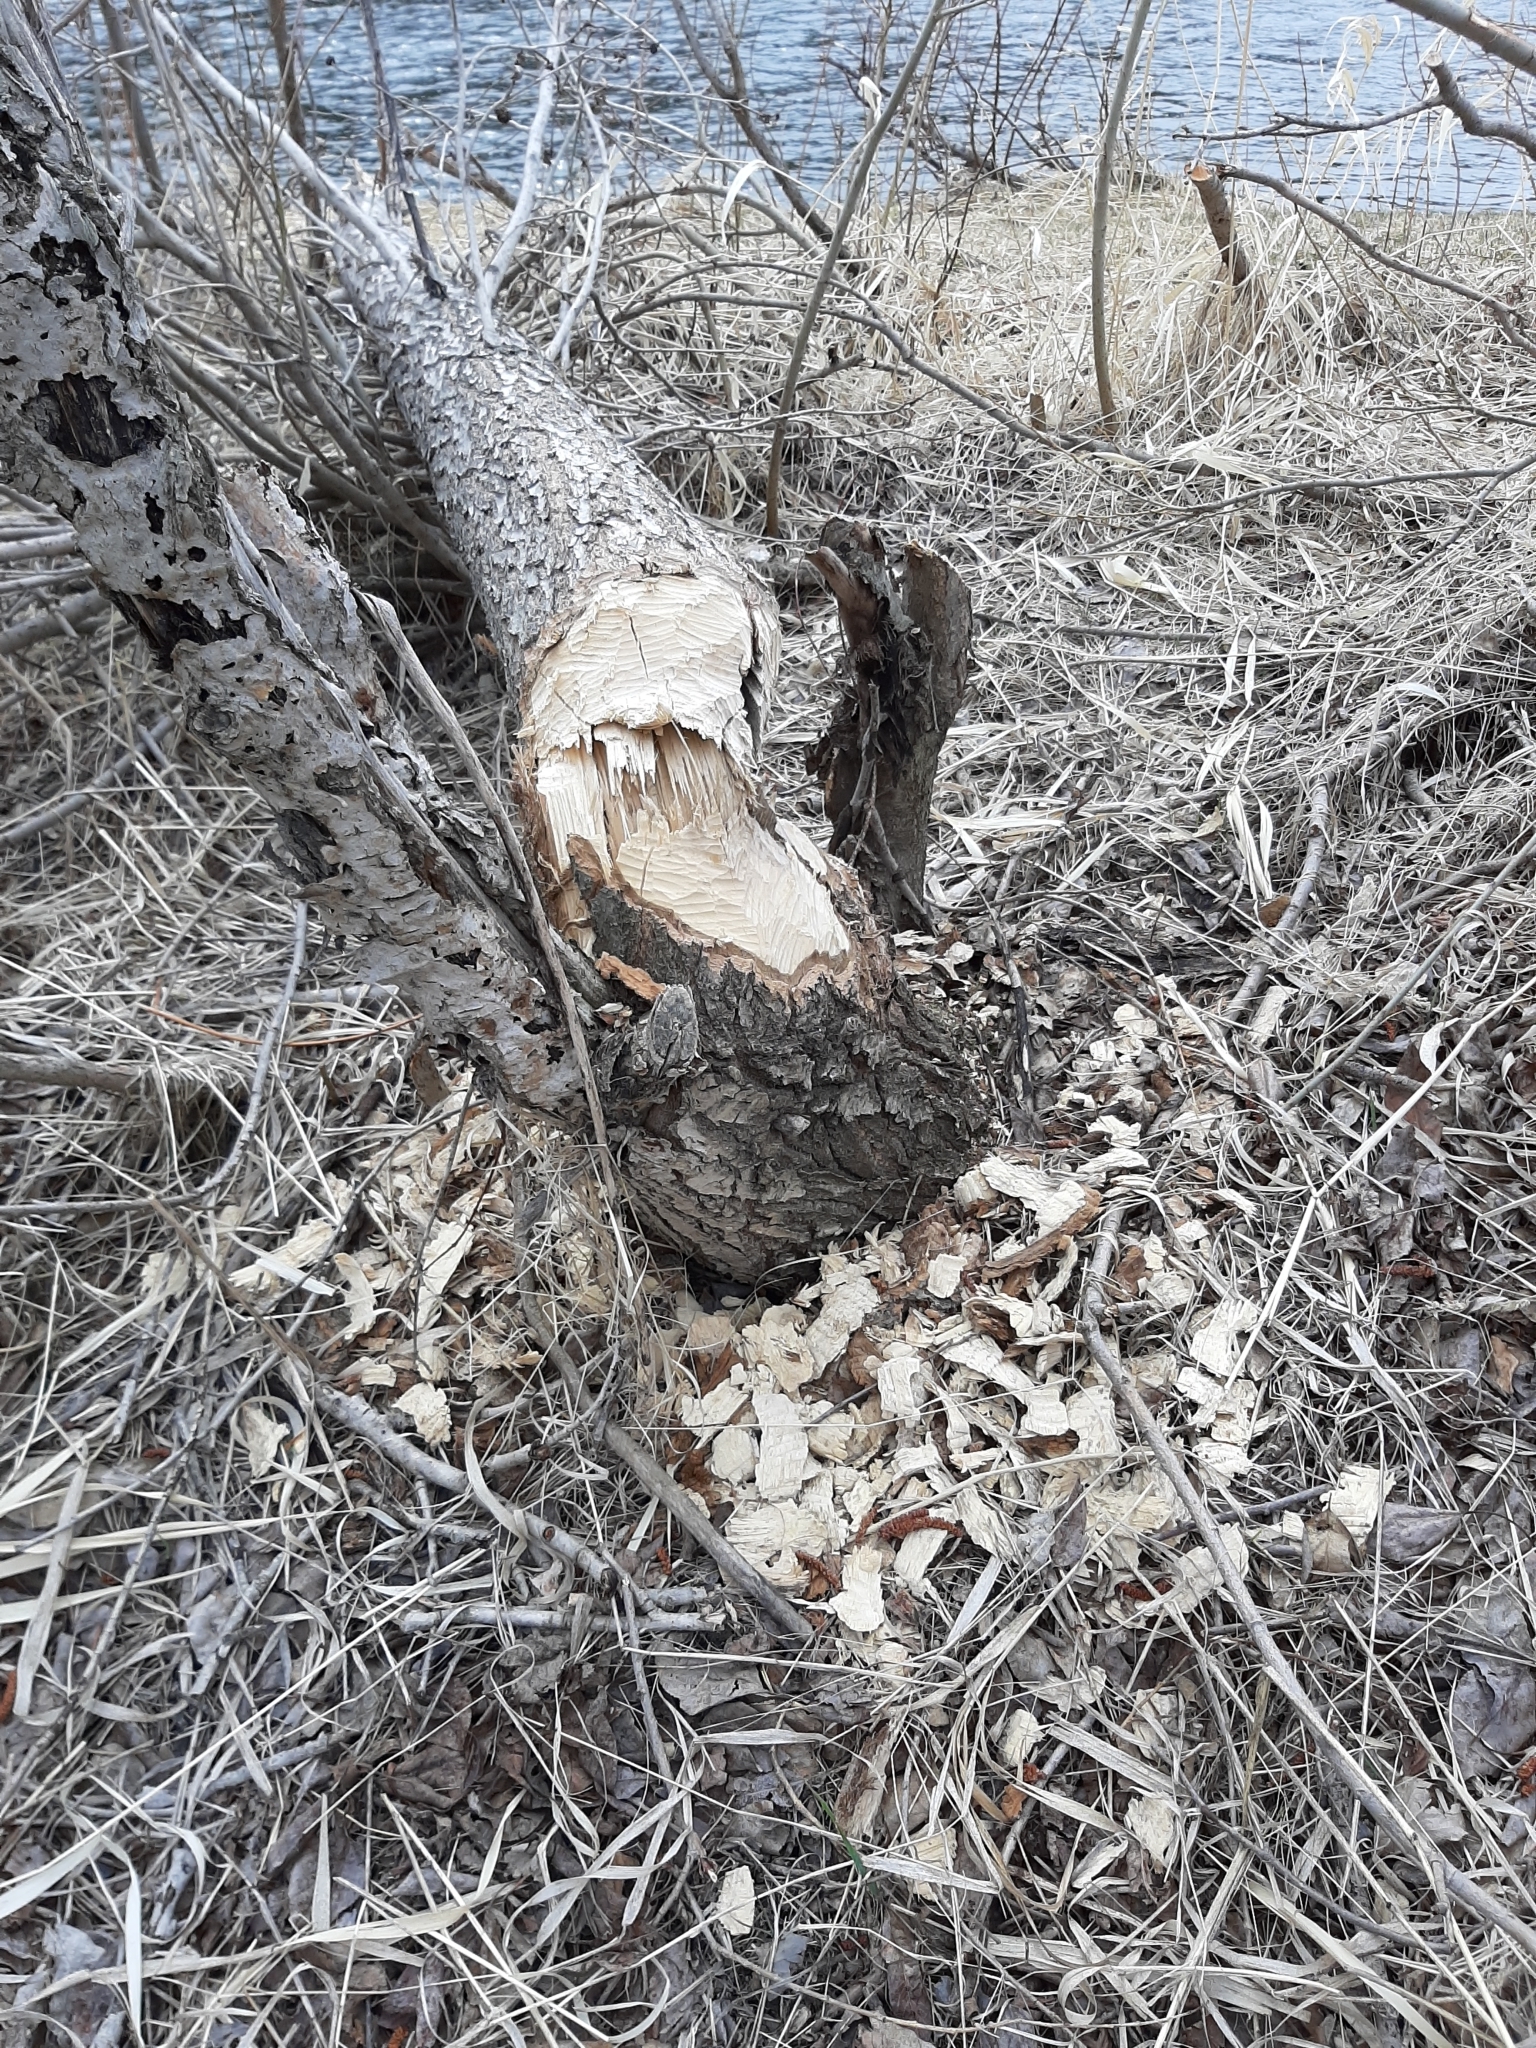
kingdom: Animalia
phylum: Chordata
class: Mammalia
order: Rodentia
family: Castoridae
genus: Castor
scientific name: Castor canadensis
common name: American beaver
